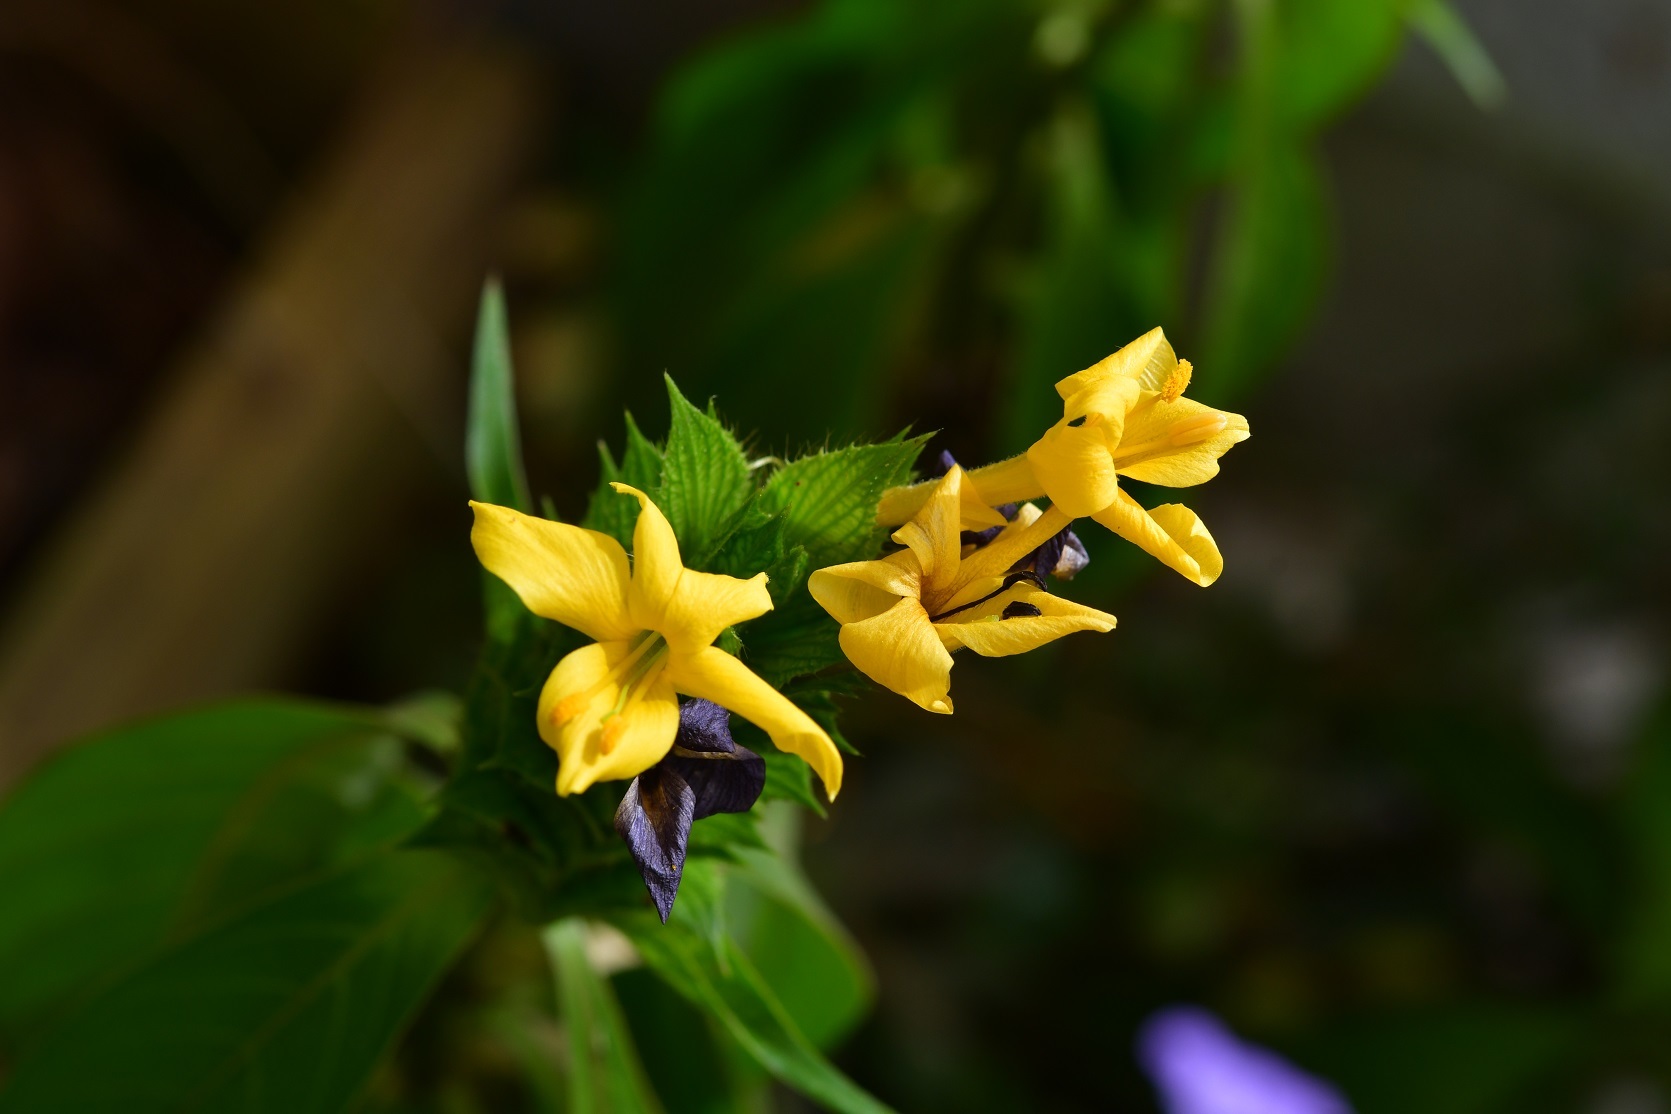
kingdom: Plantae
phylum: Tracheophyta
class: Magnoliopsida
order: Lamiales
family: Acanthaceae
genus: Barleria
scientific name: Barleria oenotheroides
